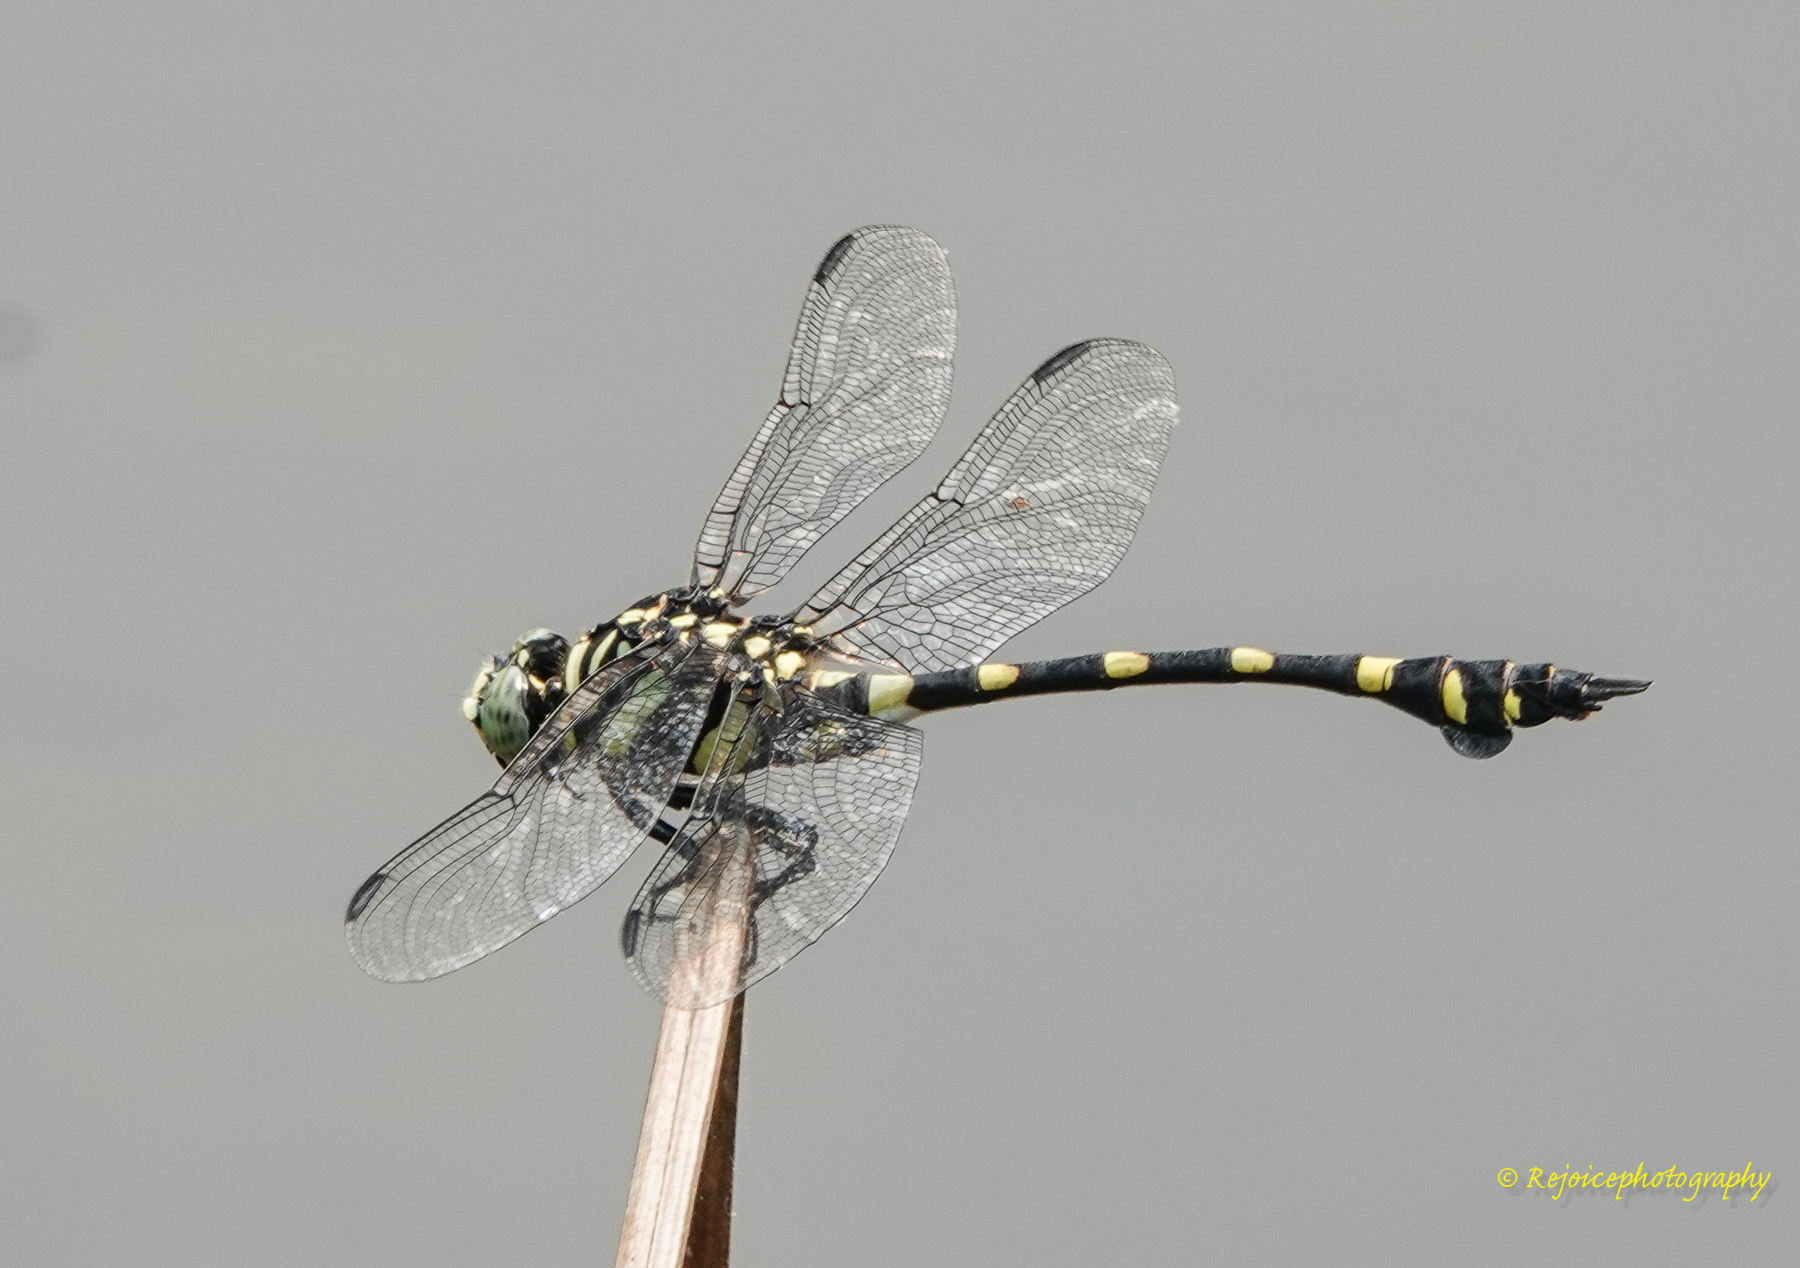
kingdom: Animalia
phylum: Arthropoda
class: Insecta
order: Odonata
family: Gomphidae
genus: Ictinogomphus
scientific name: Ictinogomphus rapax
